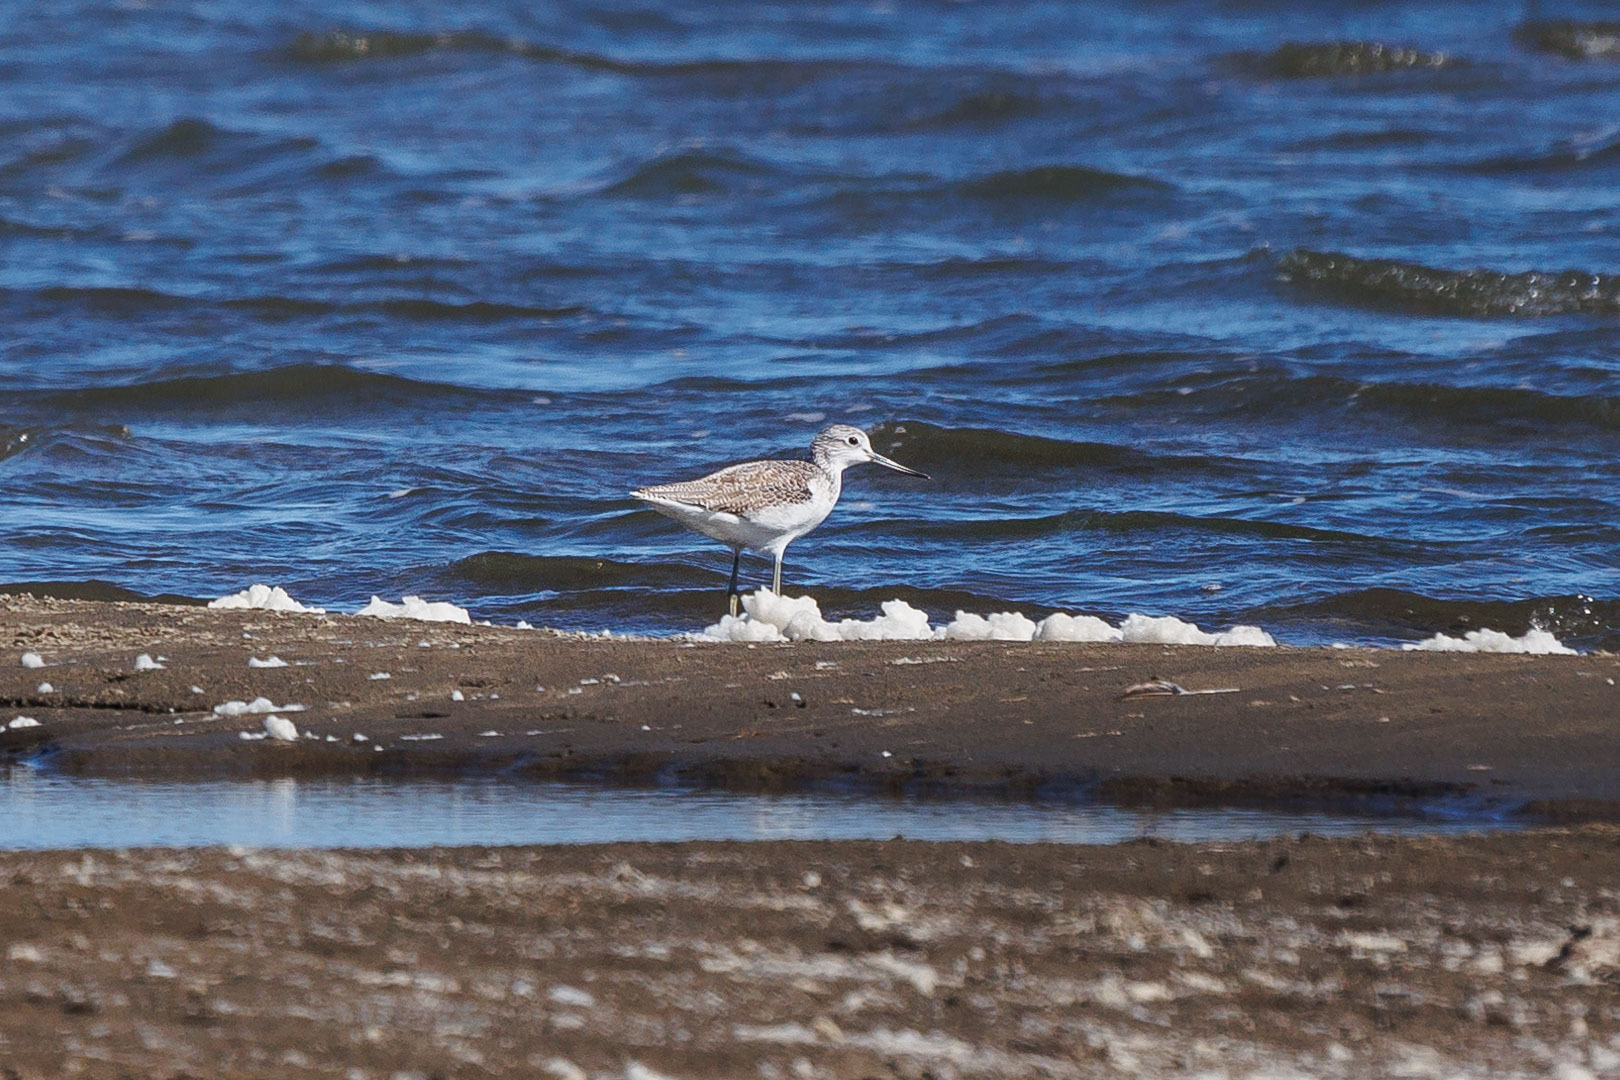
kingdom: Animalia
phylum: Chordata
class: Aves
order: Charadriiformes
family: Scolopacidae
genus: Tringa
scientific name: Tringa nebularia
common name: Common greenshank
